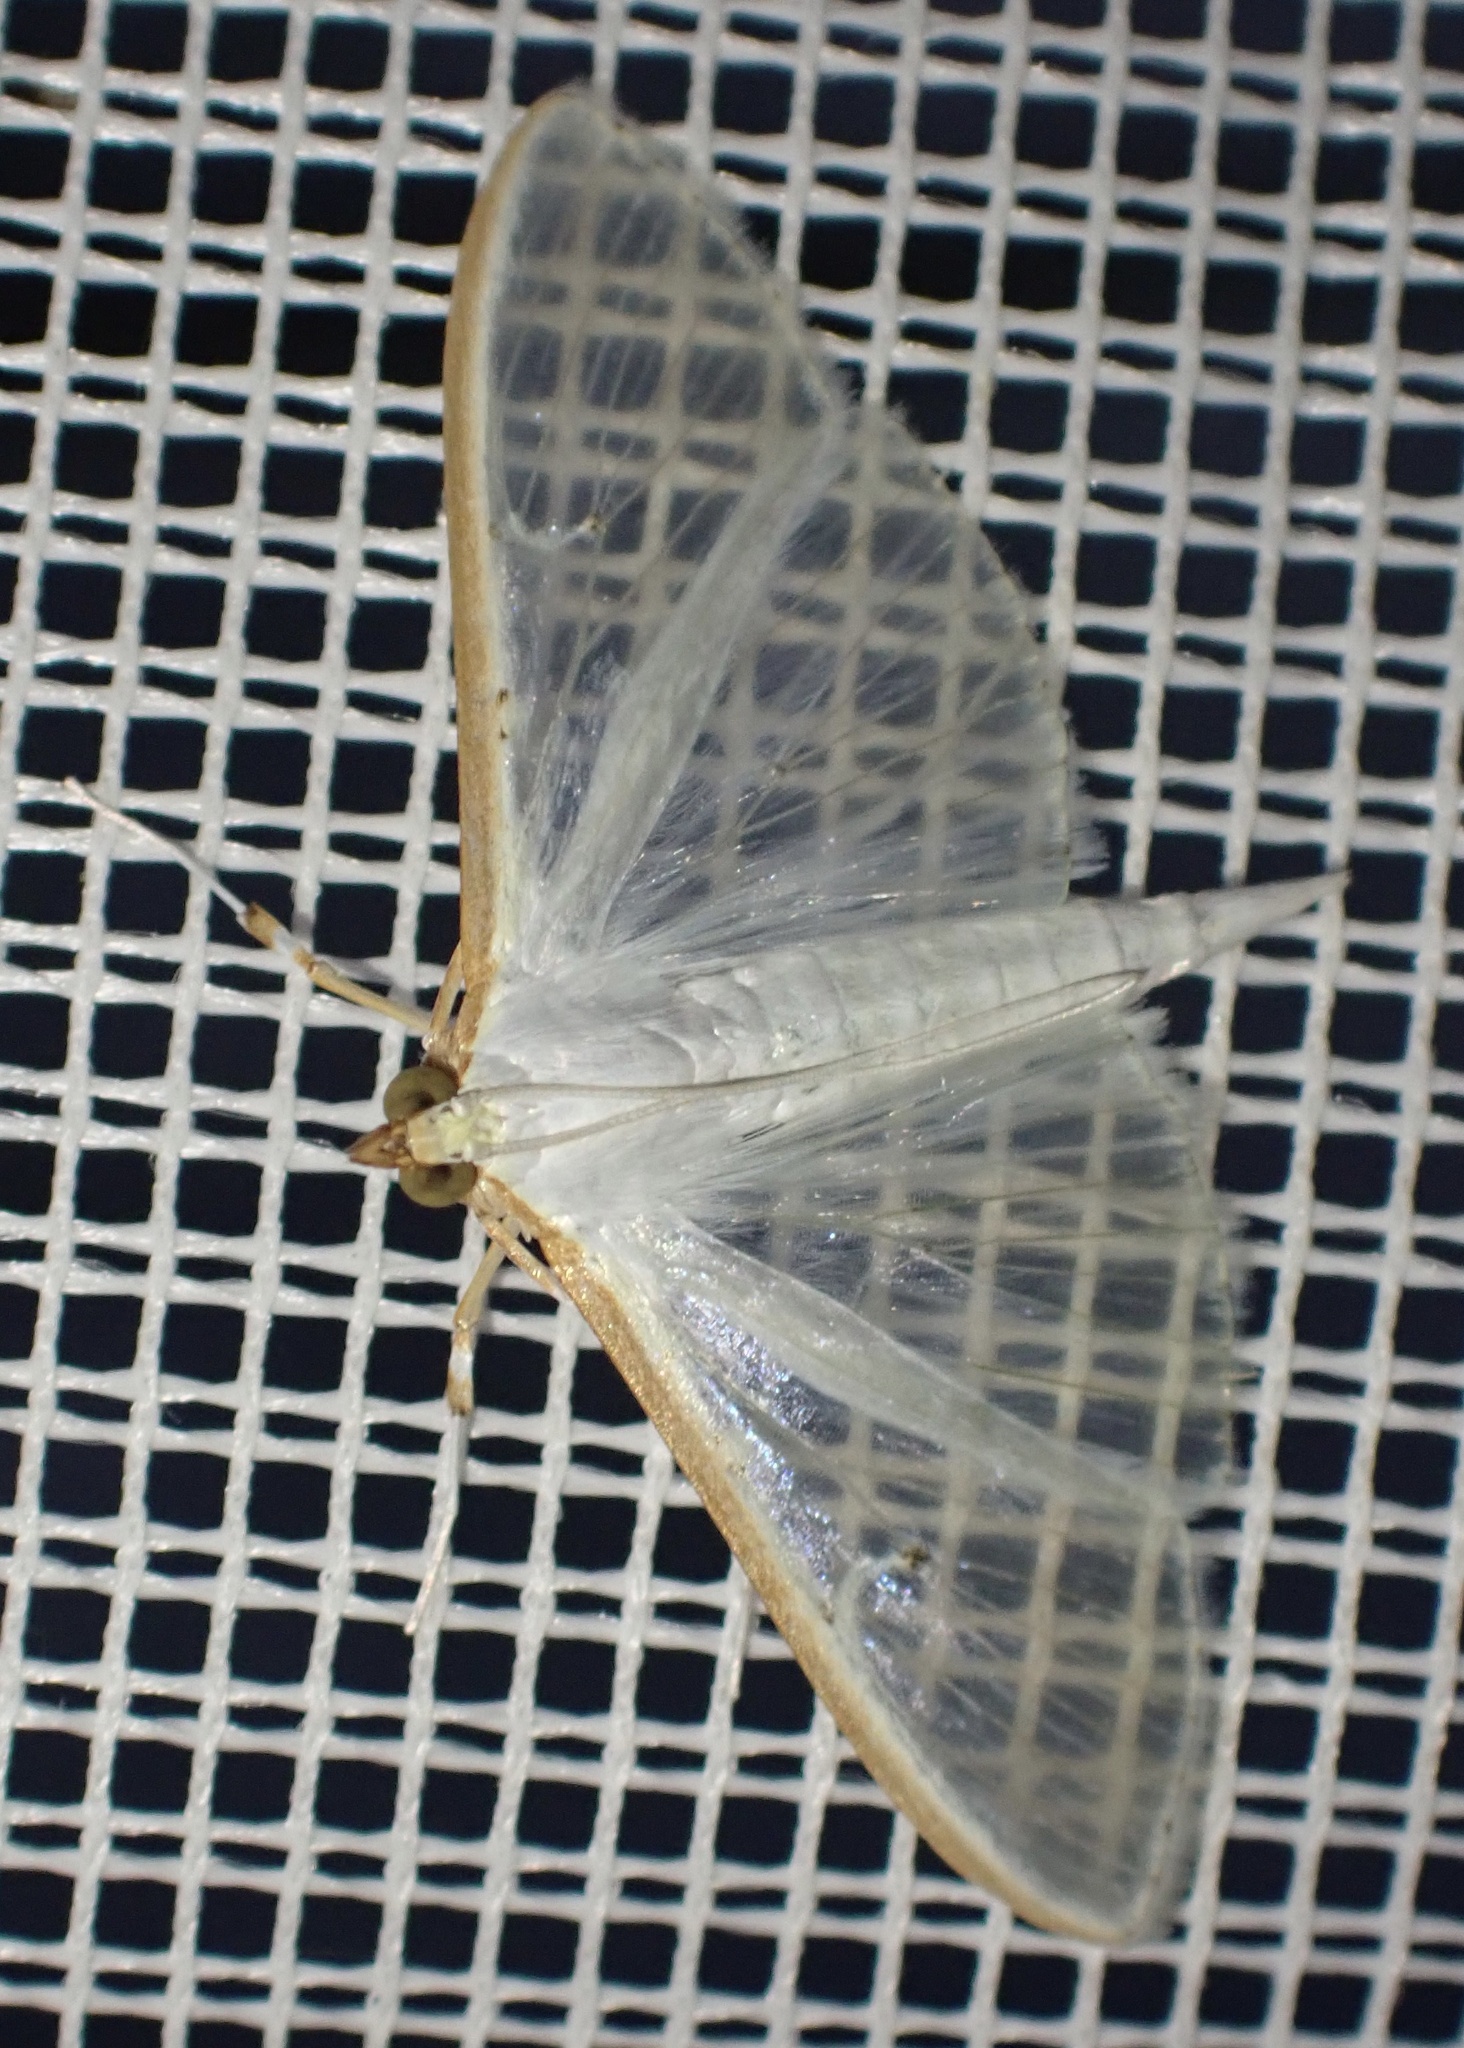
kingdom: Animalia
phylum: Arthropoda
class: Insecta
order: Lepidoptera
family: Crambidae
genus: Palpita
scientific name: Palpita vitrealis
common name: Olive-tree pearl
